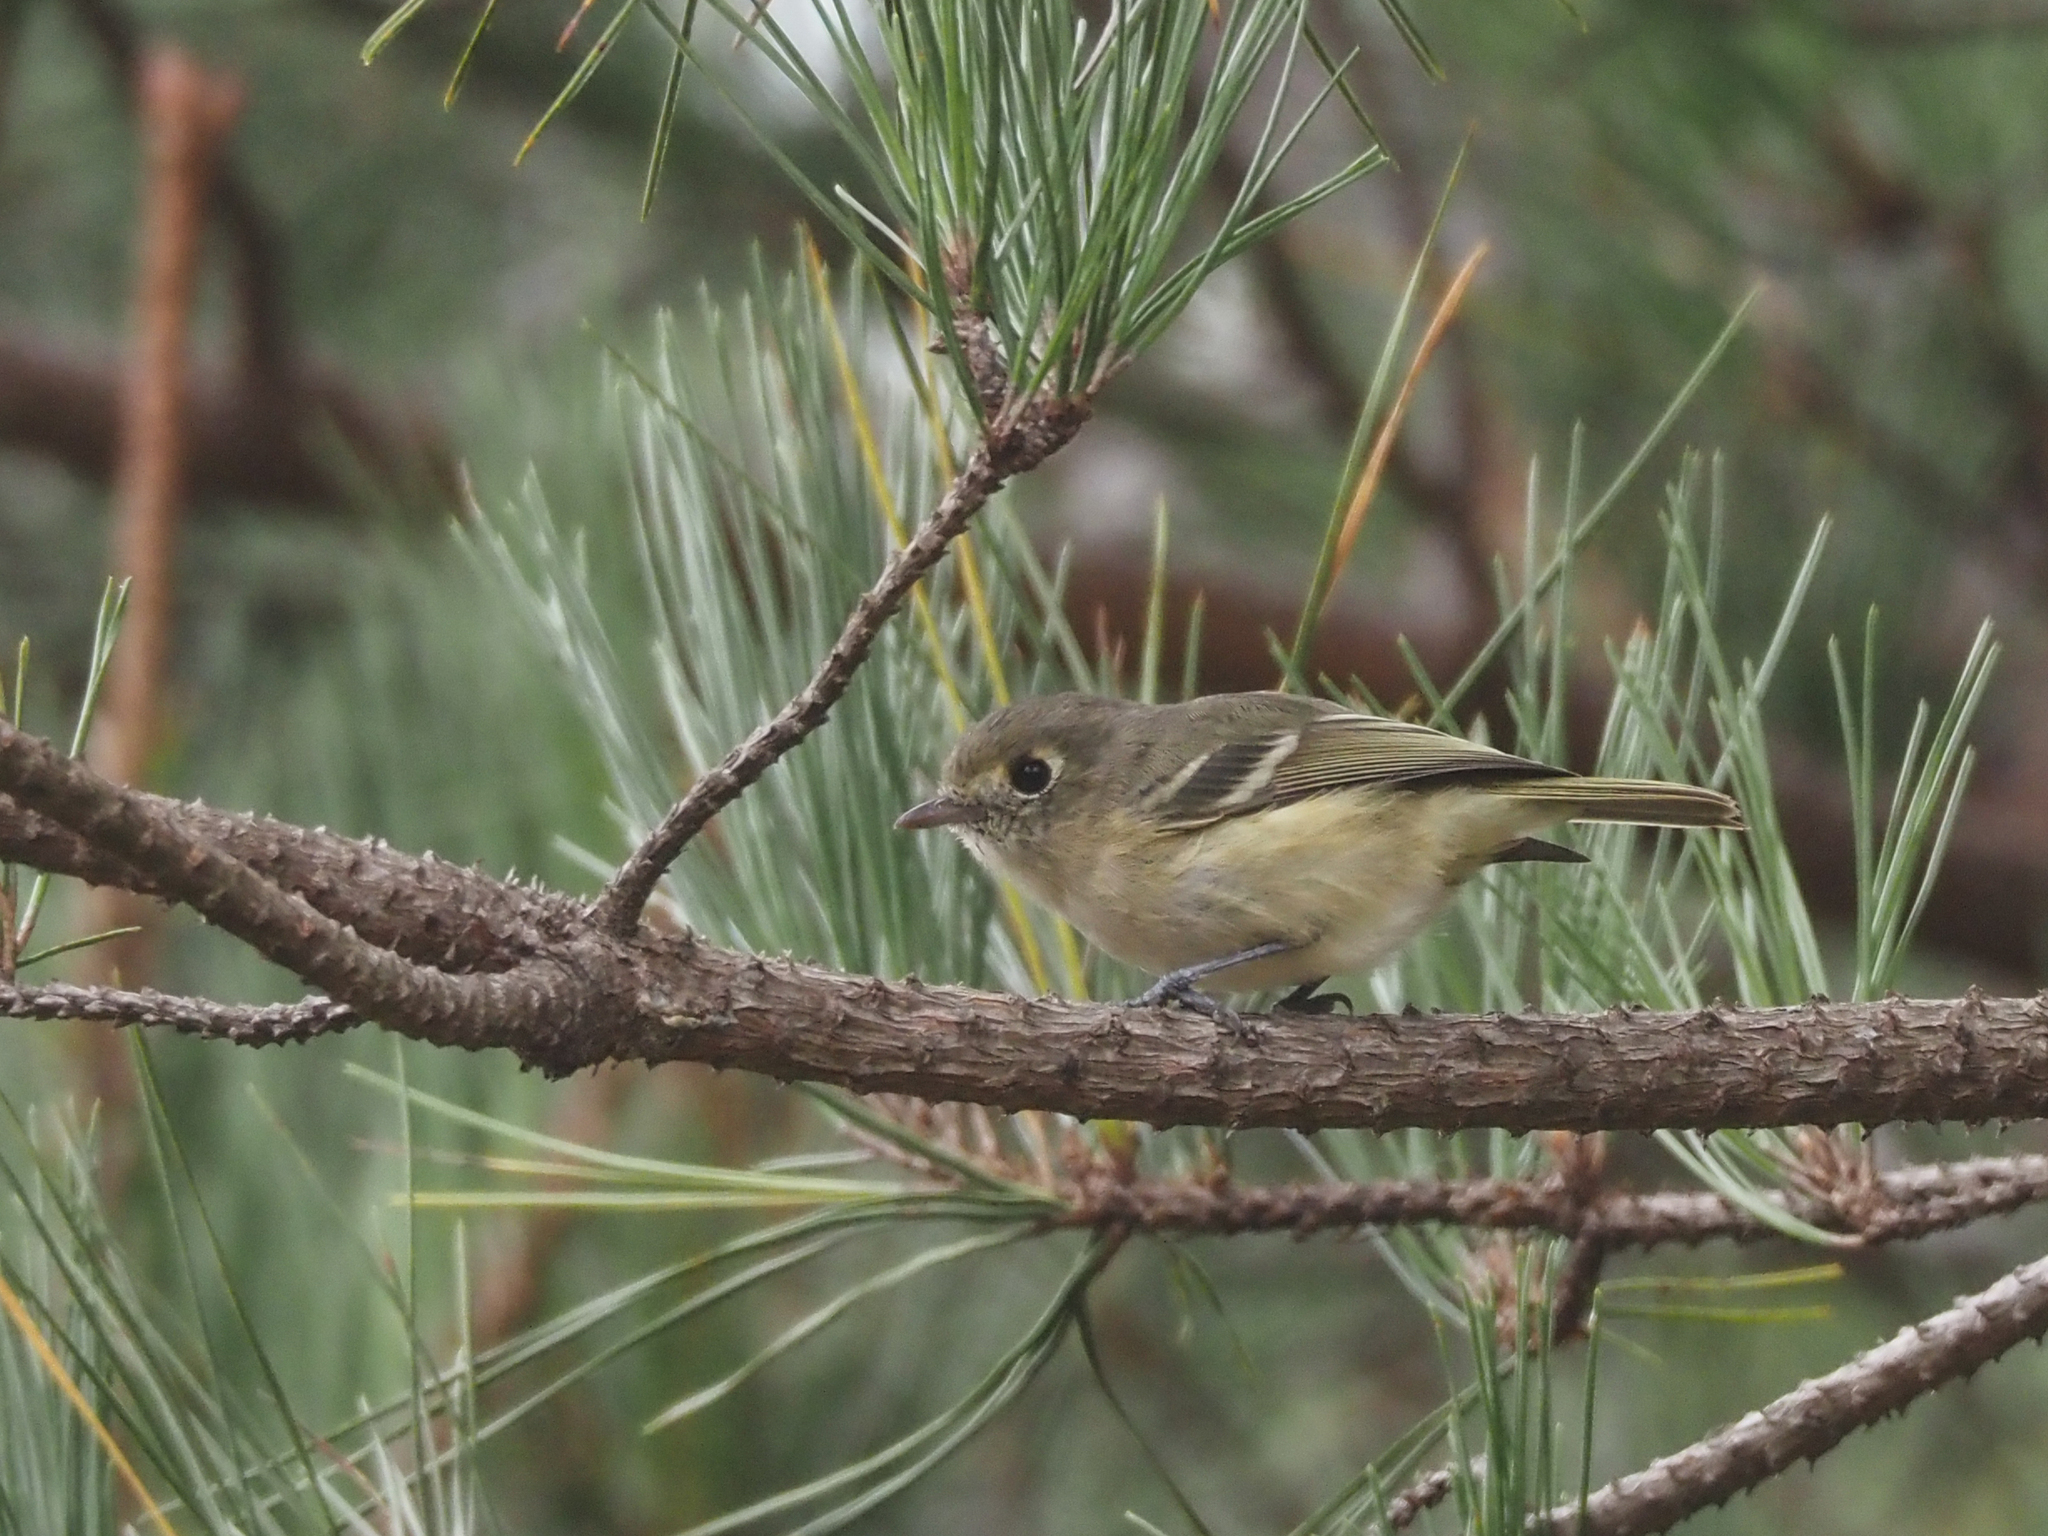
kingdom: Animalia
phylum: Chordata
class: Aves
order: Passeriformes
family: Vireonidae
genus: Vireo
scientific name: Vireo huttoni
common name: Hutton's vireo
